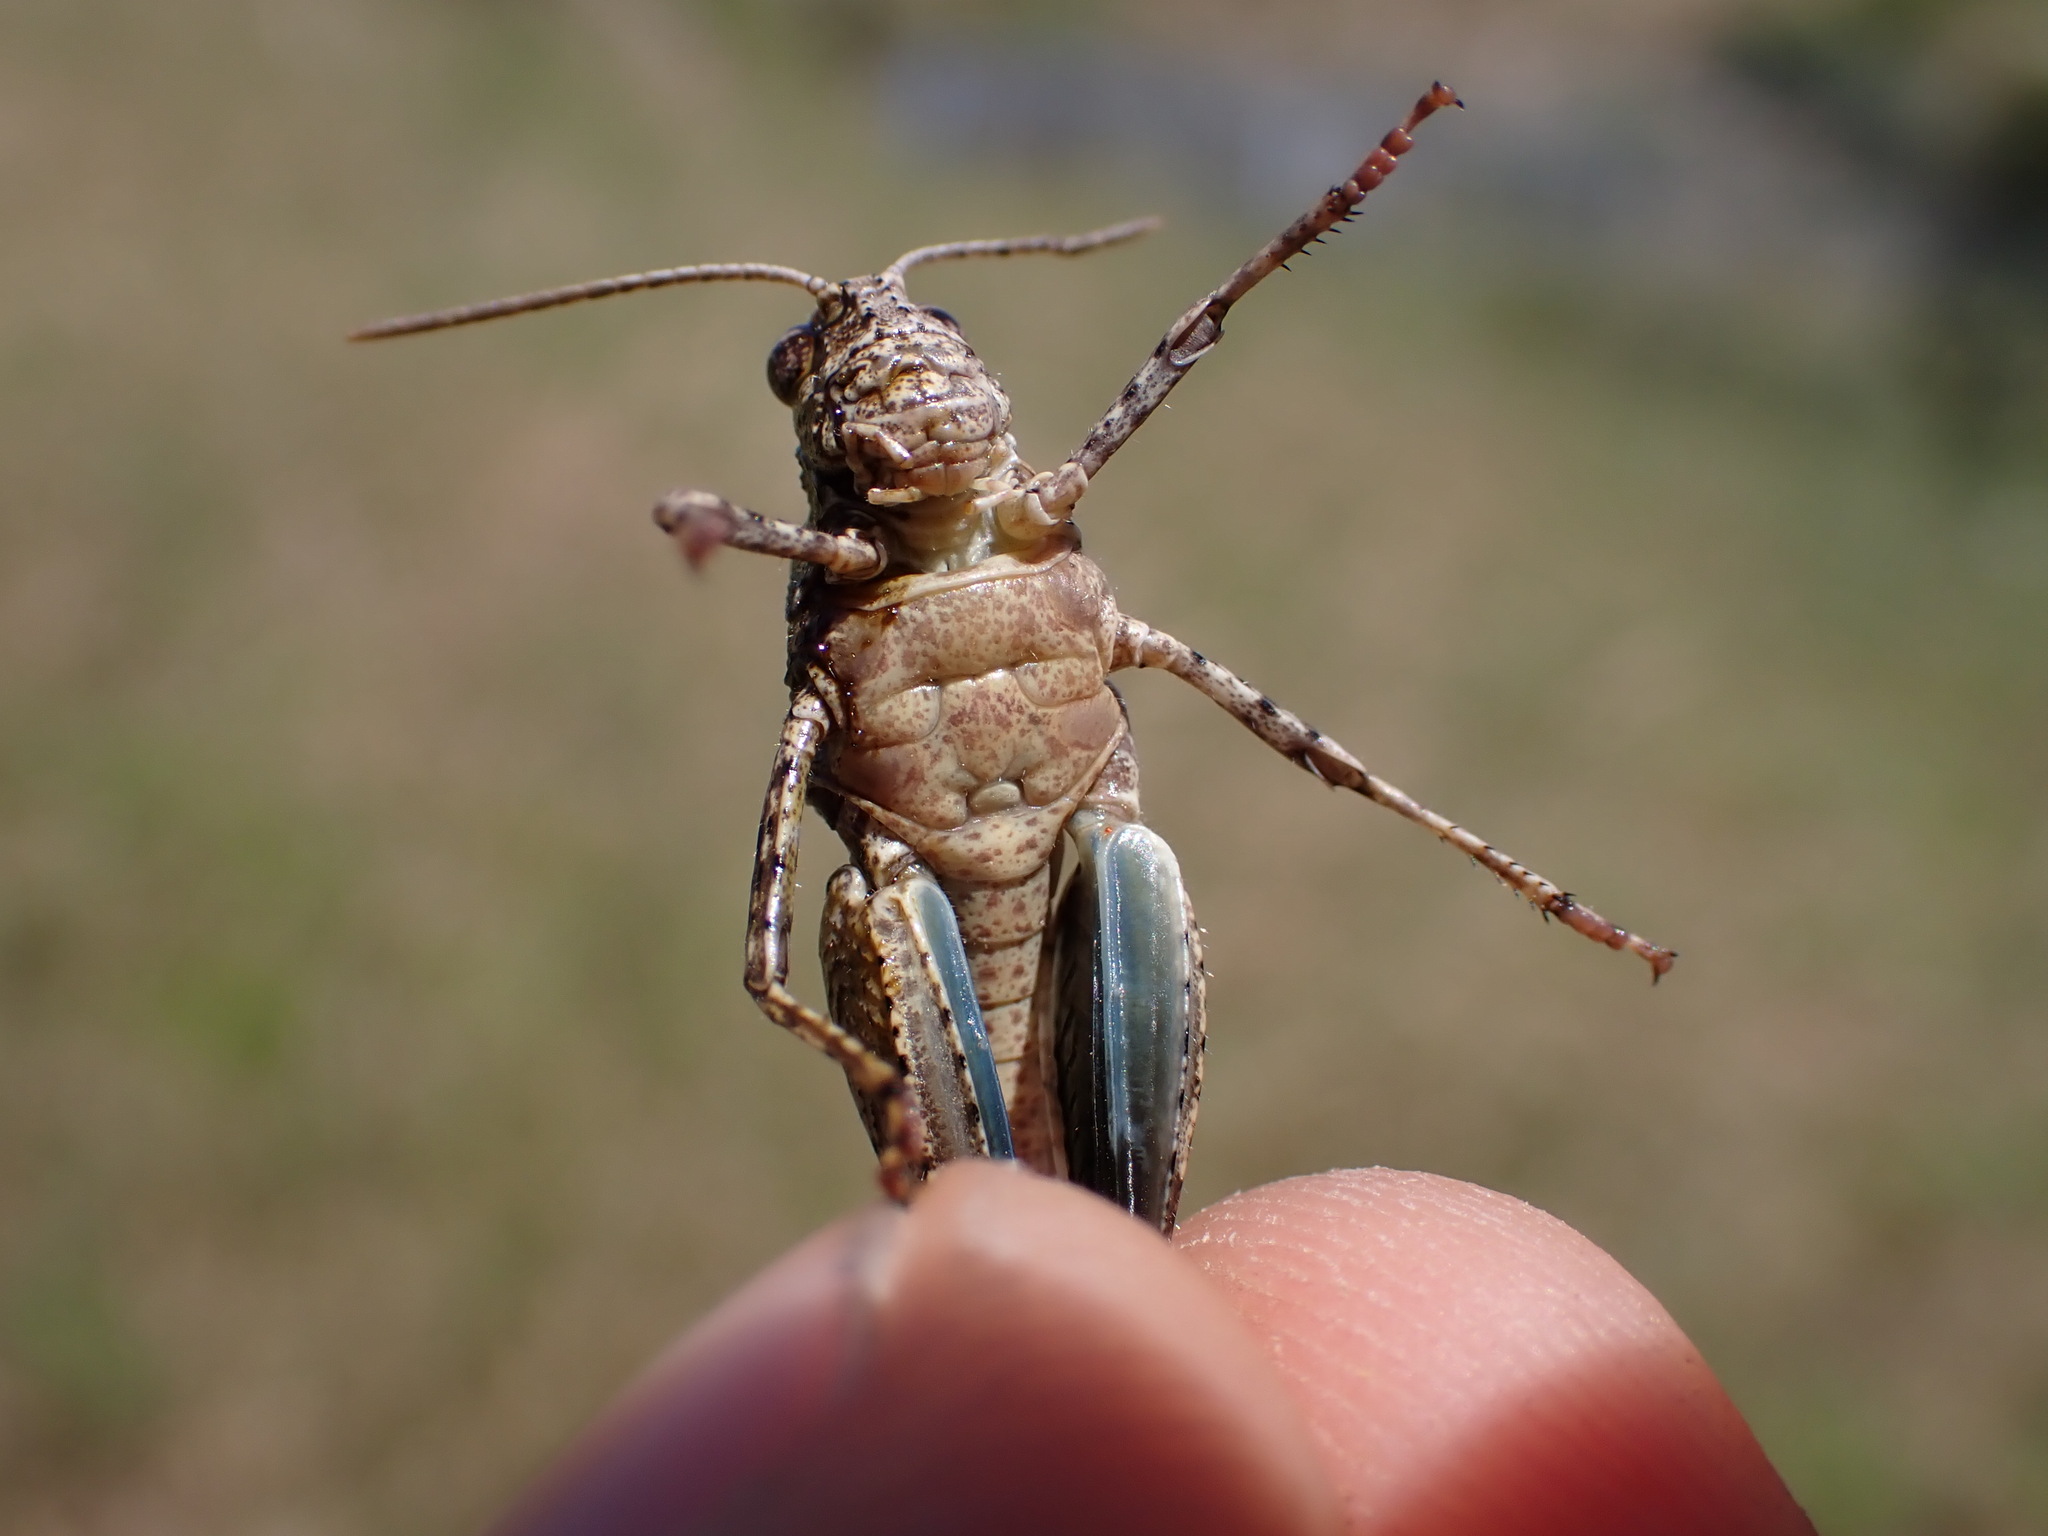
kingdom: Animalia
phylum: Arthropoda
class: Insecta
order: Orthoptera
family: Acrididae
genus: Oedipoda
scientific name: Oedipoda caerulescens
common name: Blue-winged grasshopper
